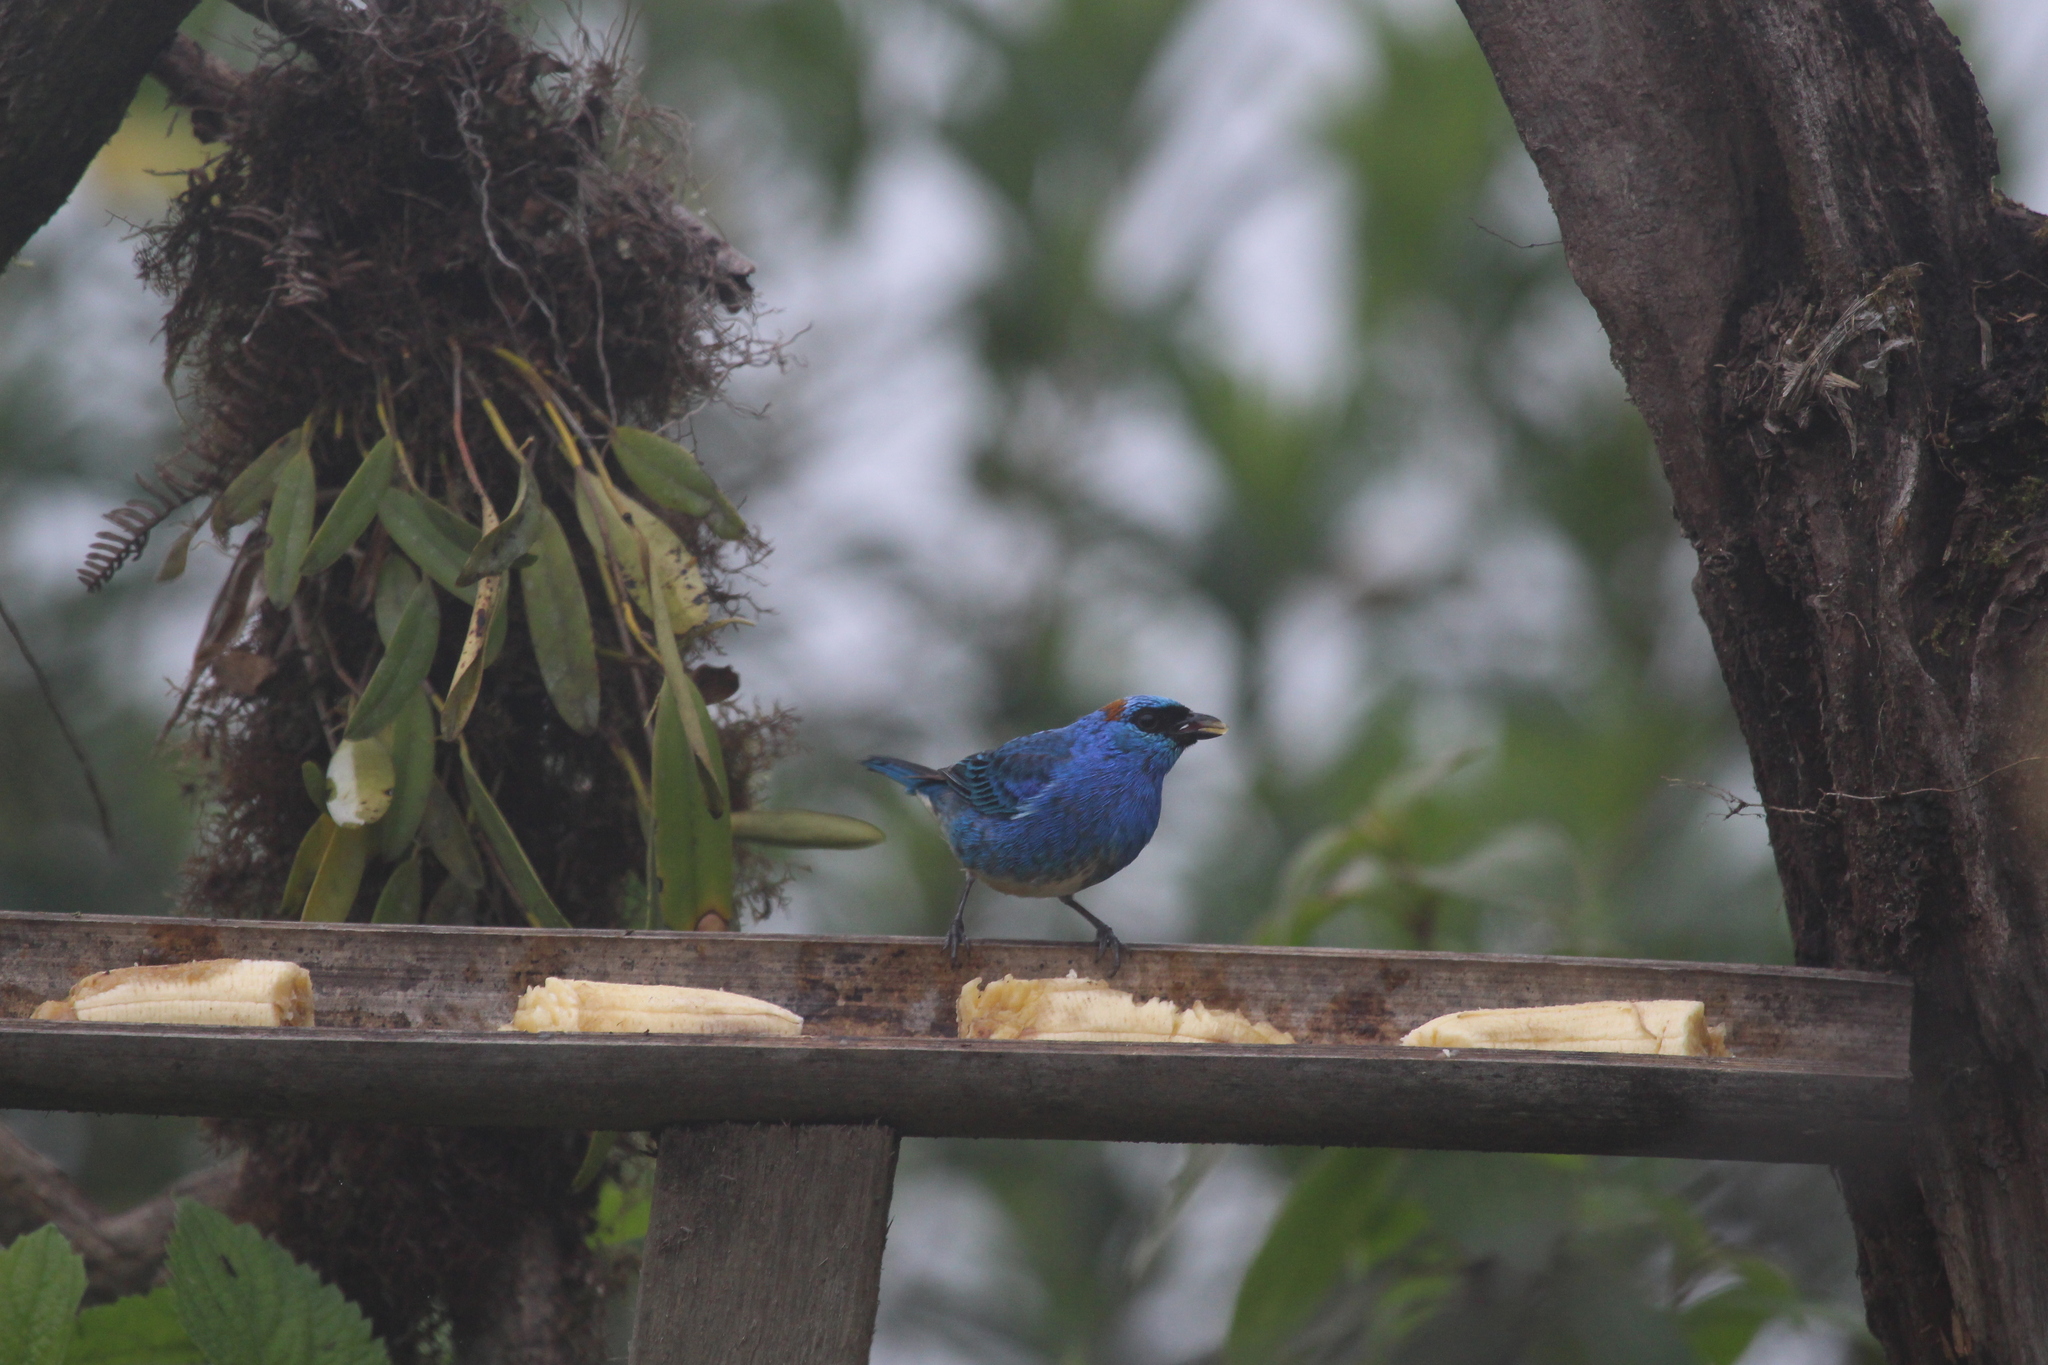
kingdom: Animalia
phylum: Chordata
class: Aves
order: Passeriformes
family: Thraupidae
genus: Chalcothraupis
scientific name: Chalcothraupis ruficervix
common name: Golden-naped tanager
